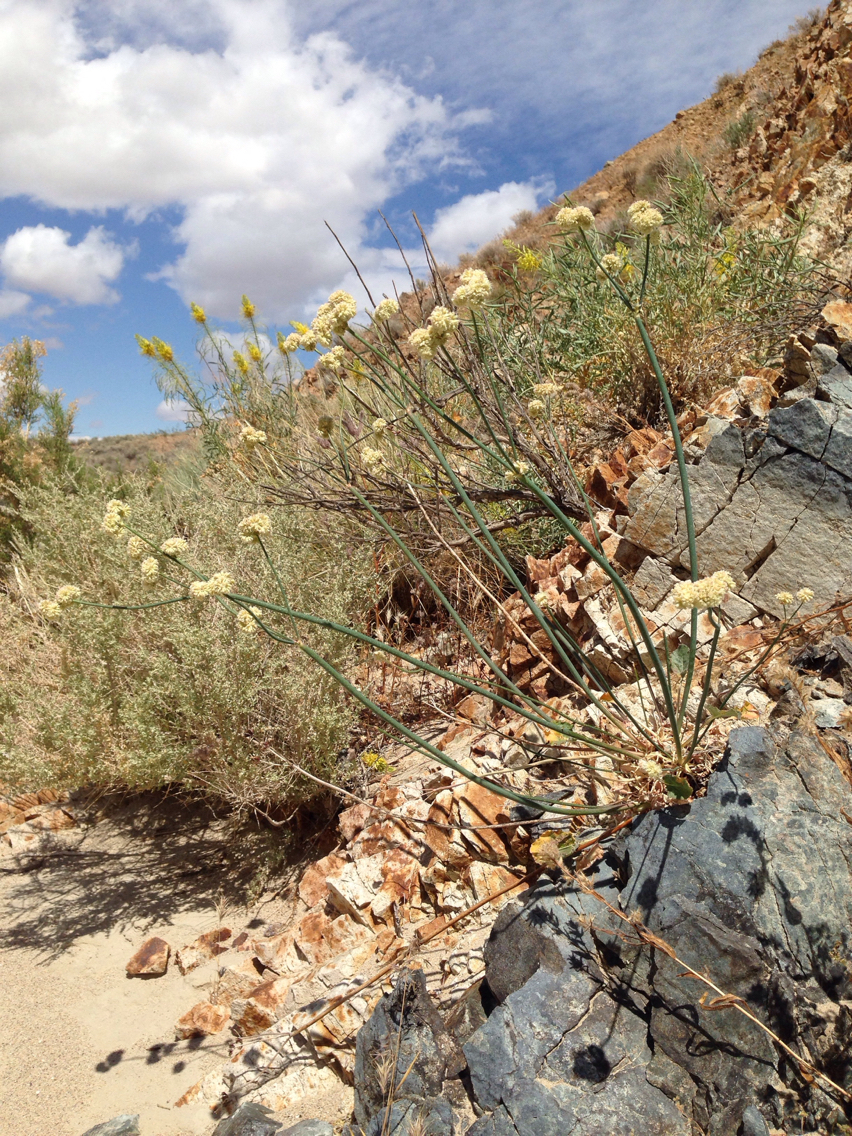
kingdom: Plantae
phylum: Tracheophyta
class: Magnoliopsida
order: Caryophyllales
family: Polygonaceae
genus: Eriogonum
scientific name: Eriogonum nudum
